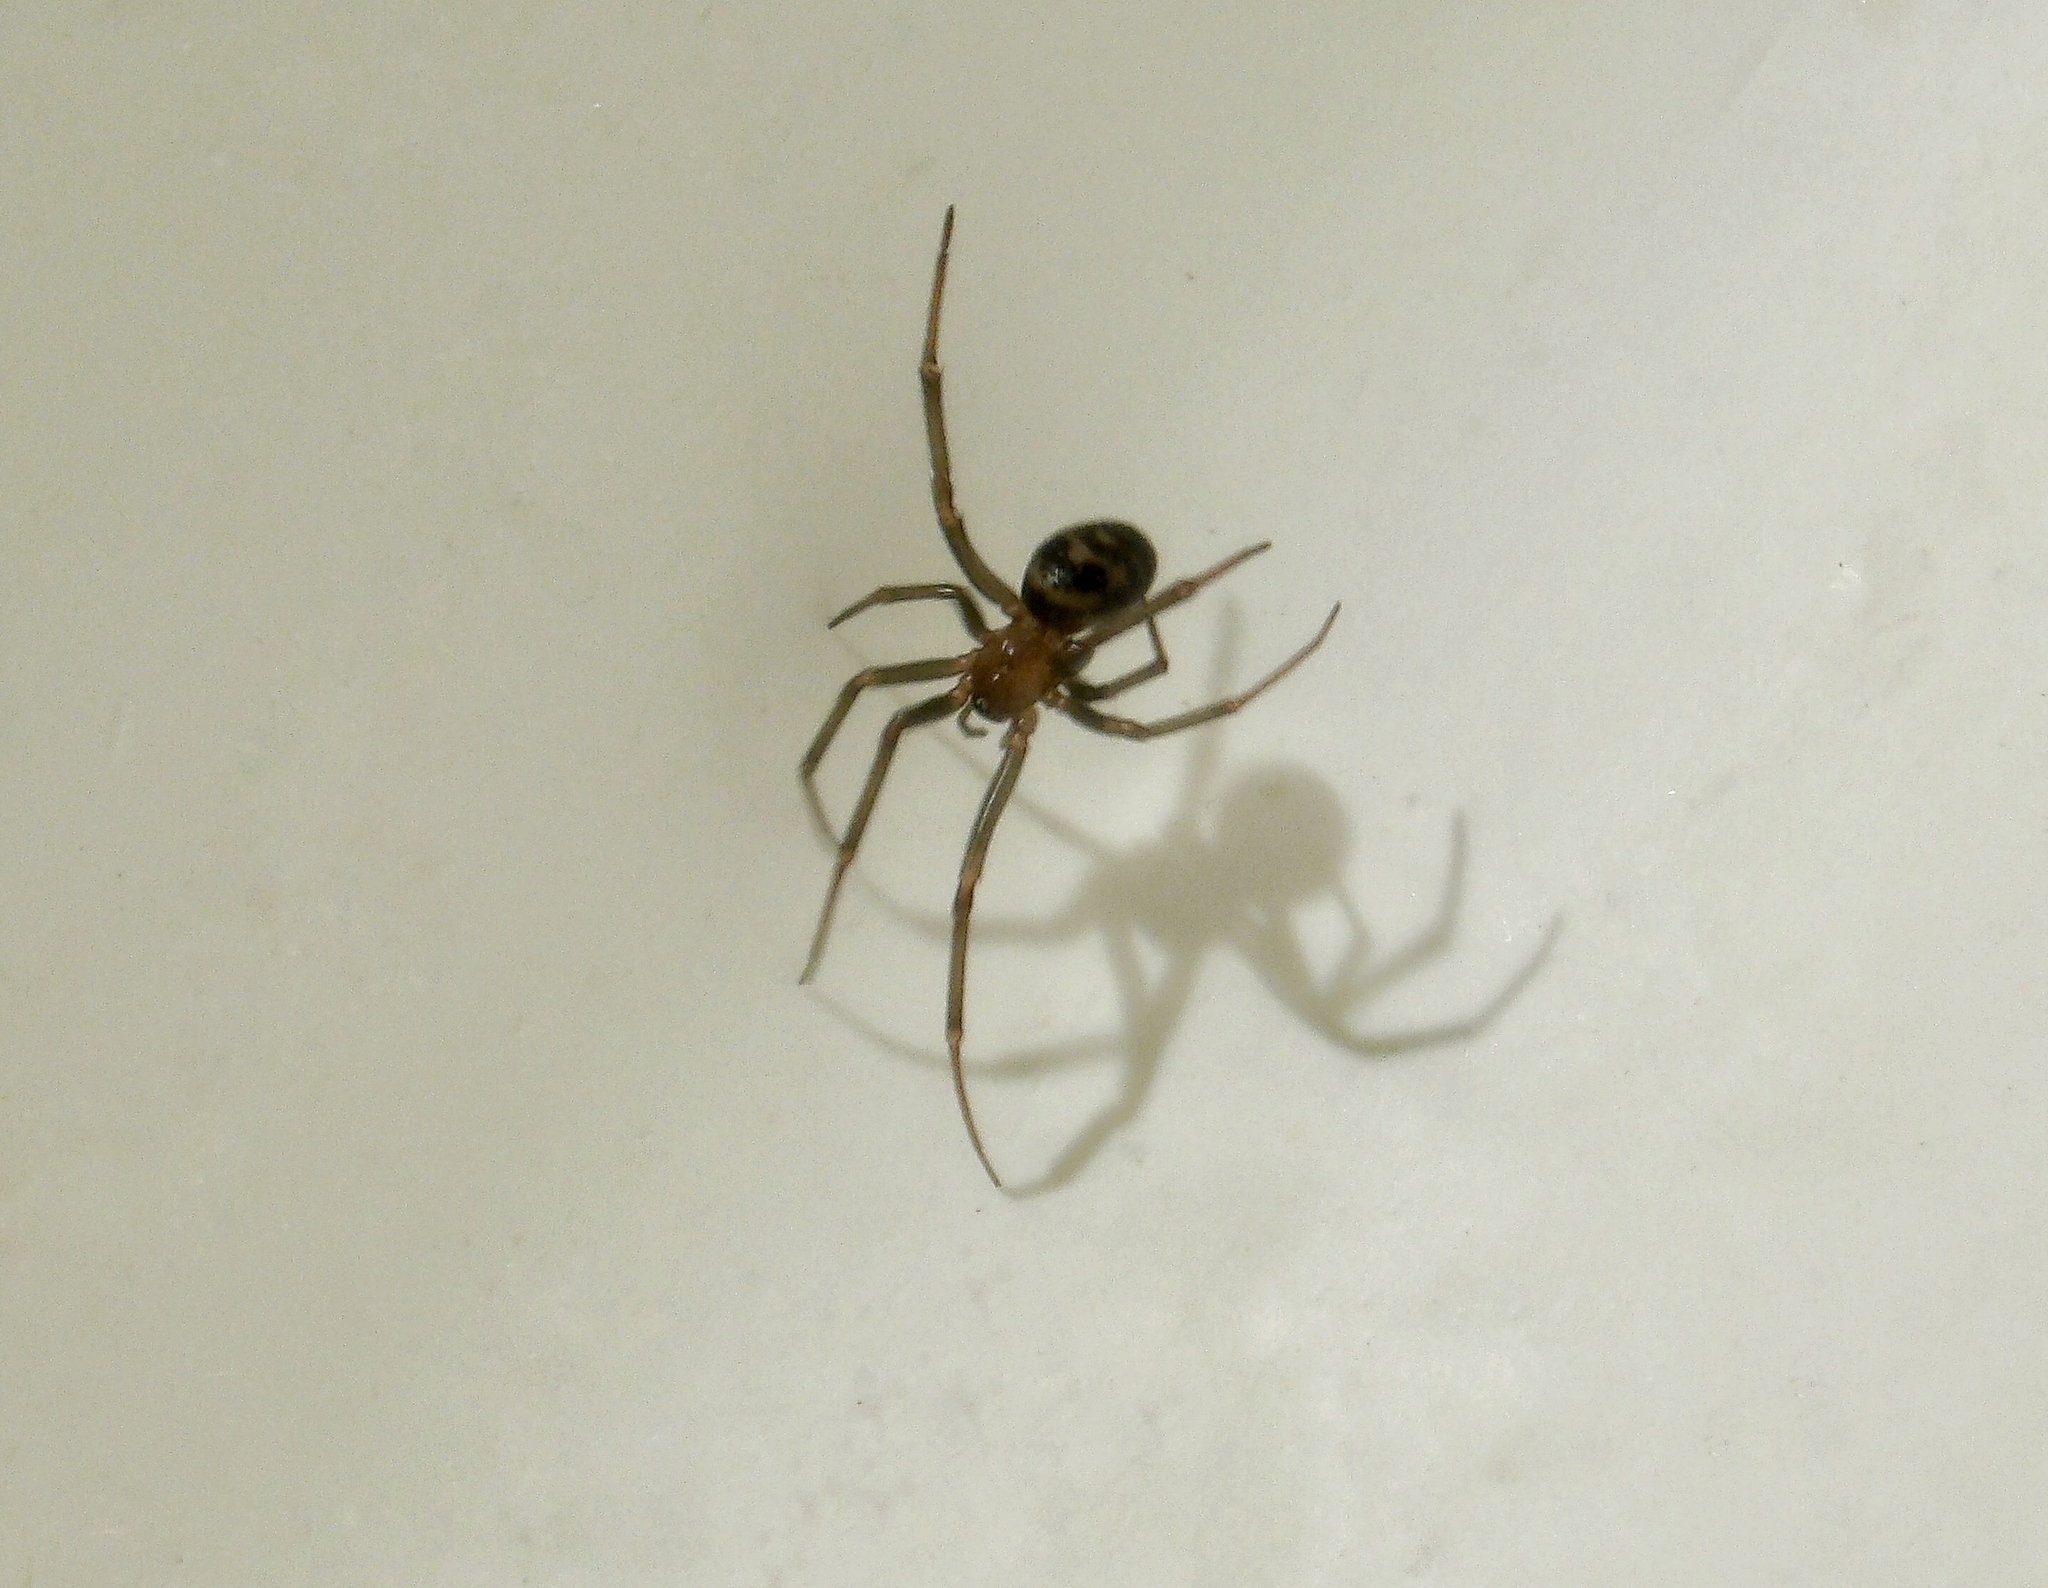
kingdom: Animalia
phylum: Arthropoda
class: Arachnida
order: Araneae
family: Theridiidae
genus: Steatoda
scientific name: Steatoda grossa
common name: False black widow
